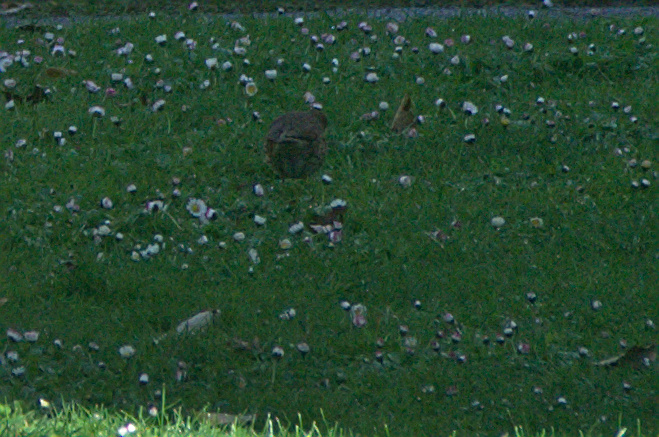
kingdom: Animalia
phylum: Chordata
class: Aves
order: Passeriformes
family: Turdidae
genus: Turdus
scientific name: Turdus philomelos
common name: Song thrush
